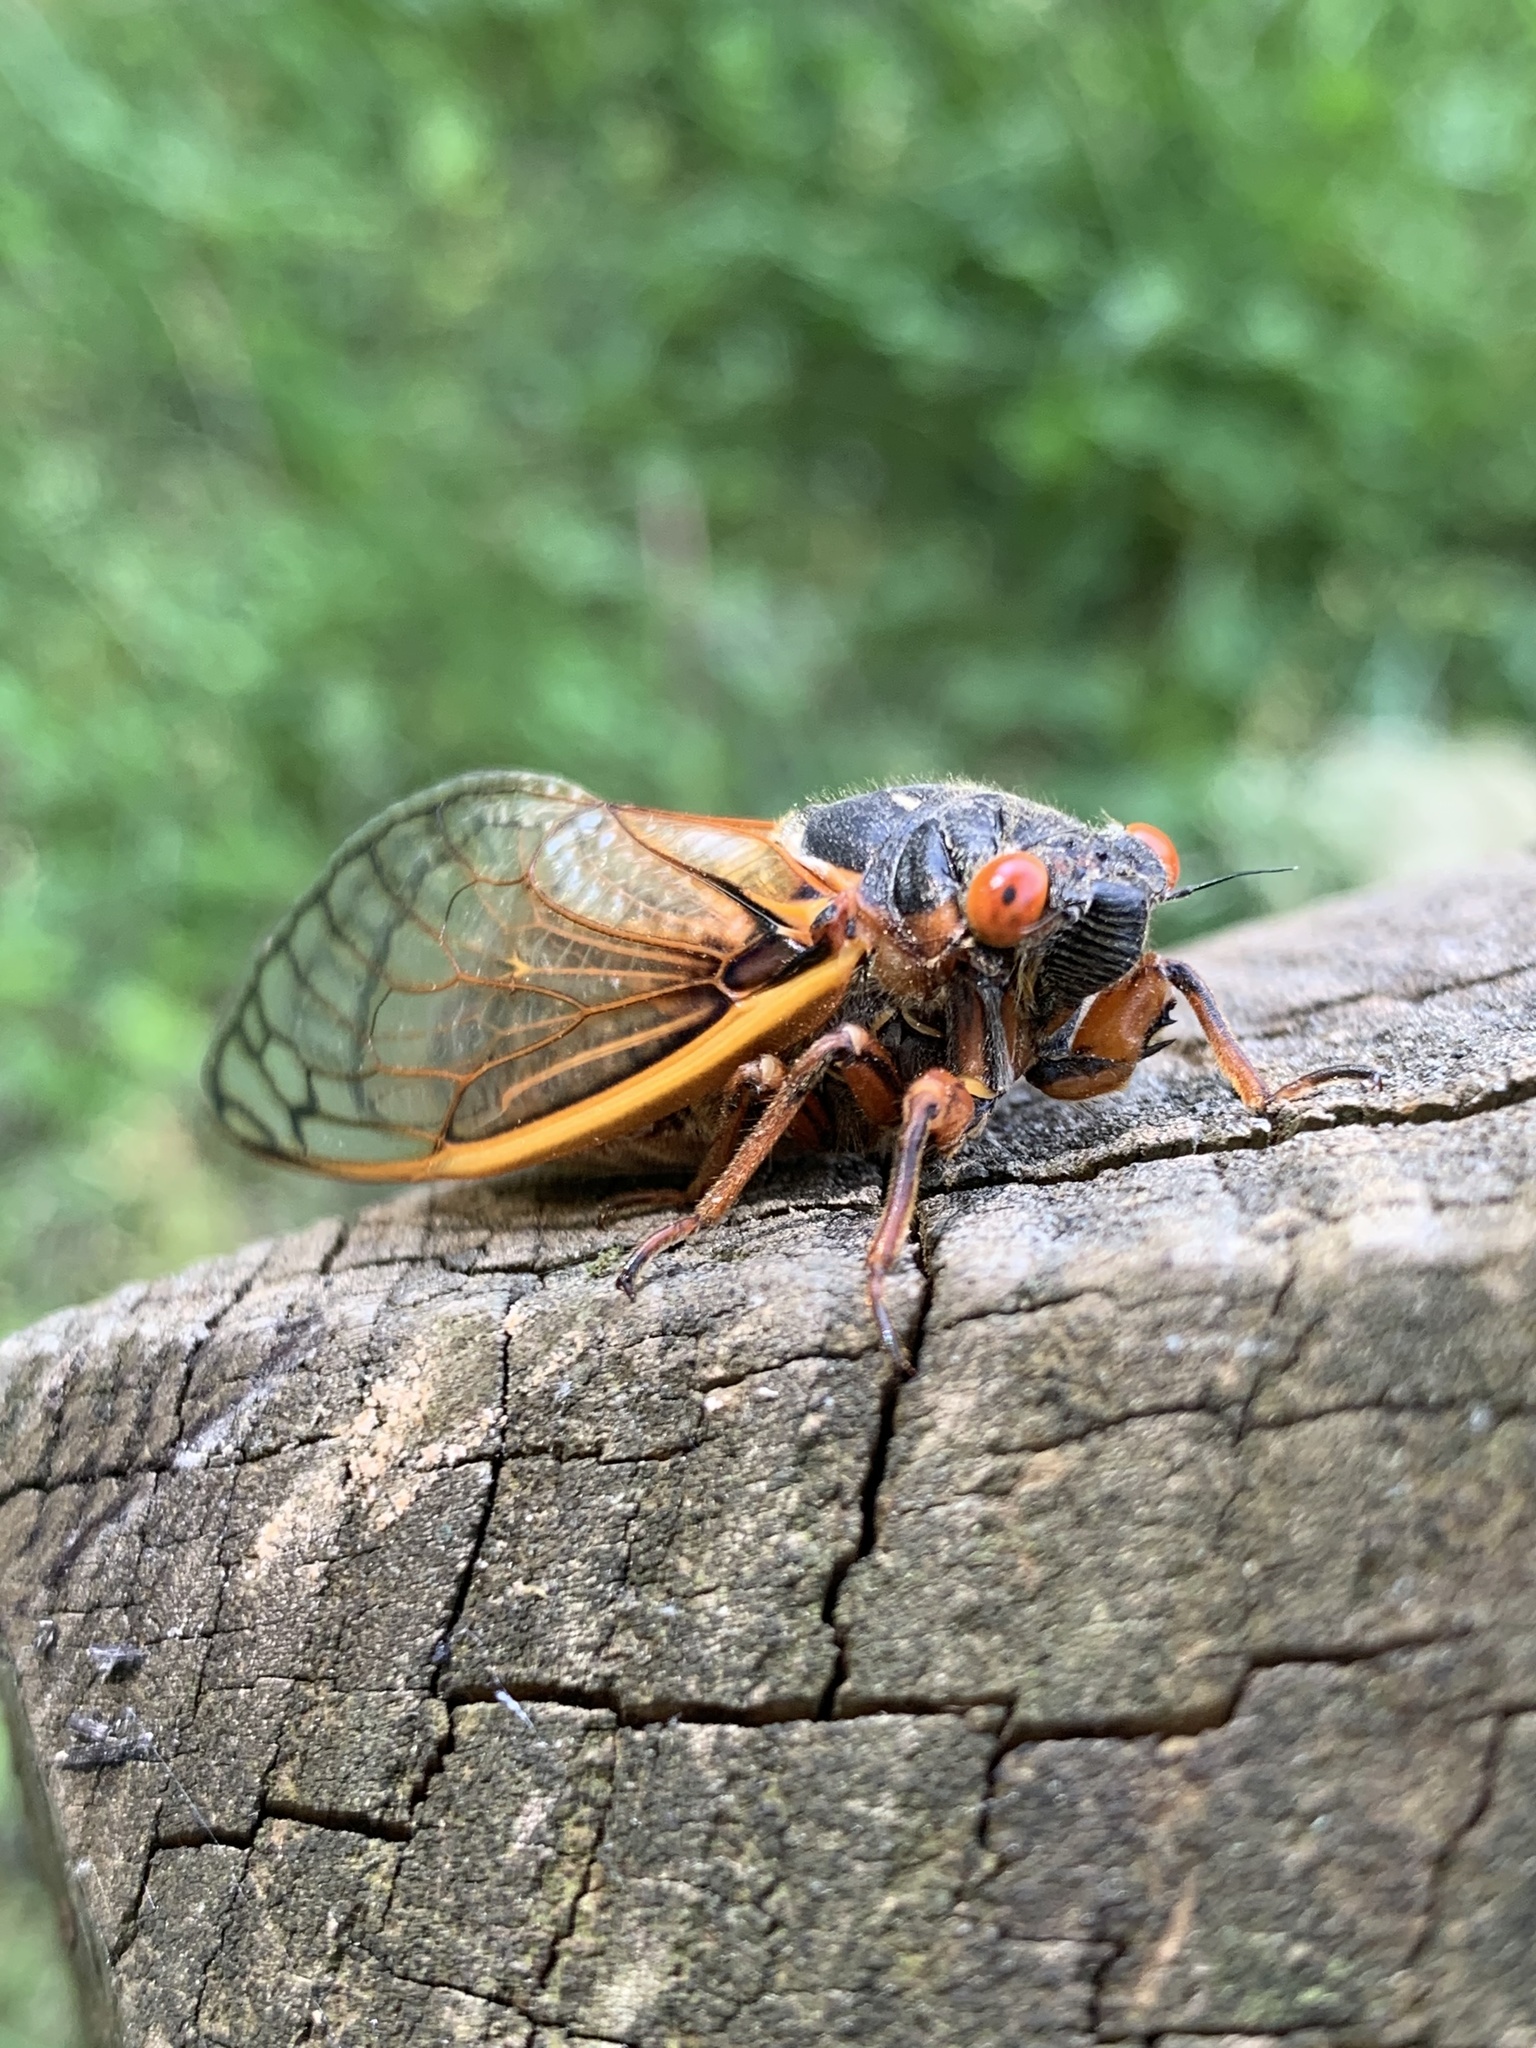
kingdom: Animalia
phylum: Arthropoda
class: Insecta
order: Hemiptera
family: Cicadidae
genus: Magicicada
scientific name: Magicicada septendecim
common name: Periodical cicada
